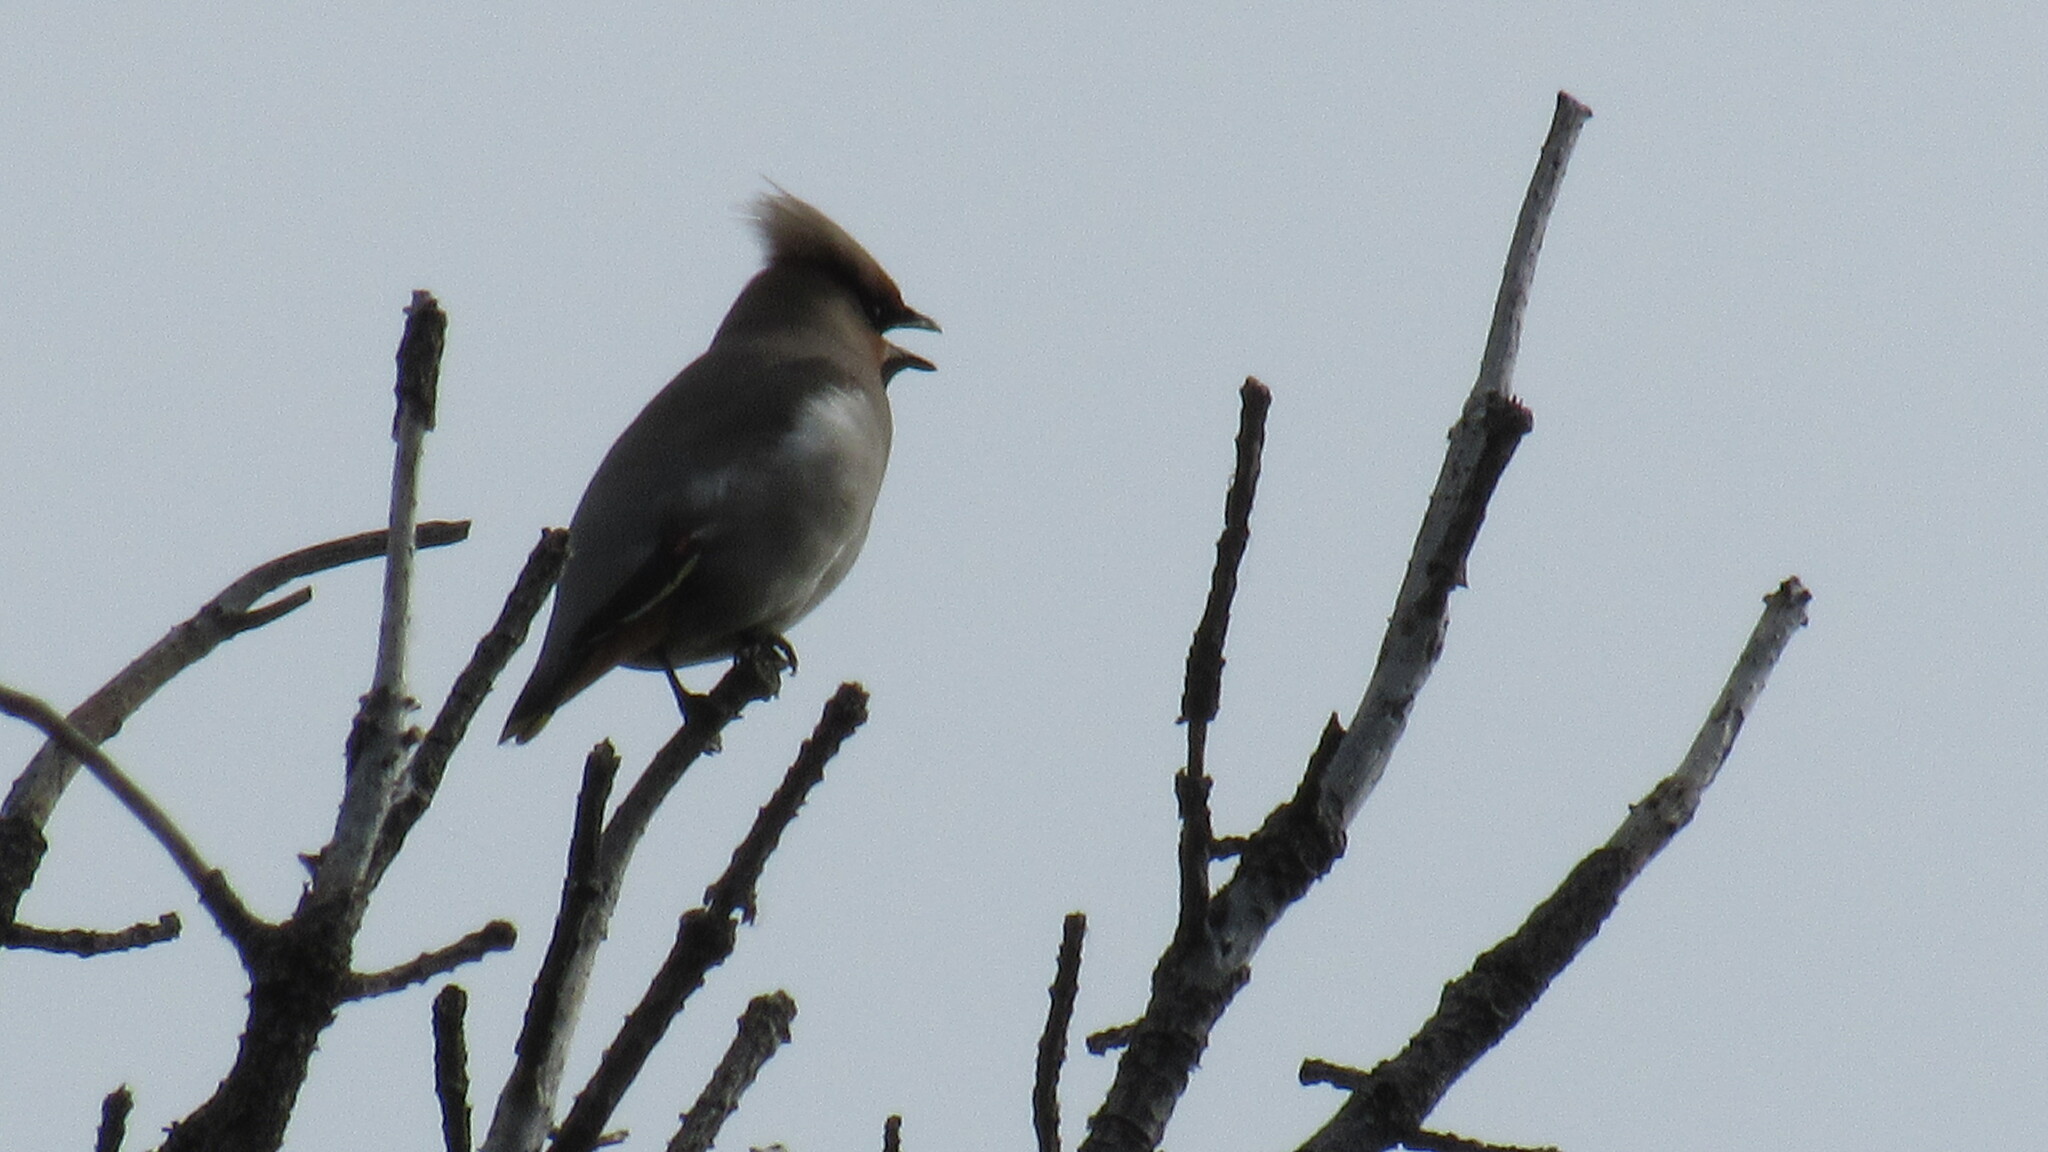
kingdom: Animalia
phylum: Chordata
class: Aves
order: Passeriformes
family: Bombycillidae
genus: Bombycilla
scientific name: Bombycilla garrulus
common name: Bohemian waxwing
